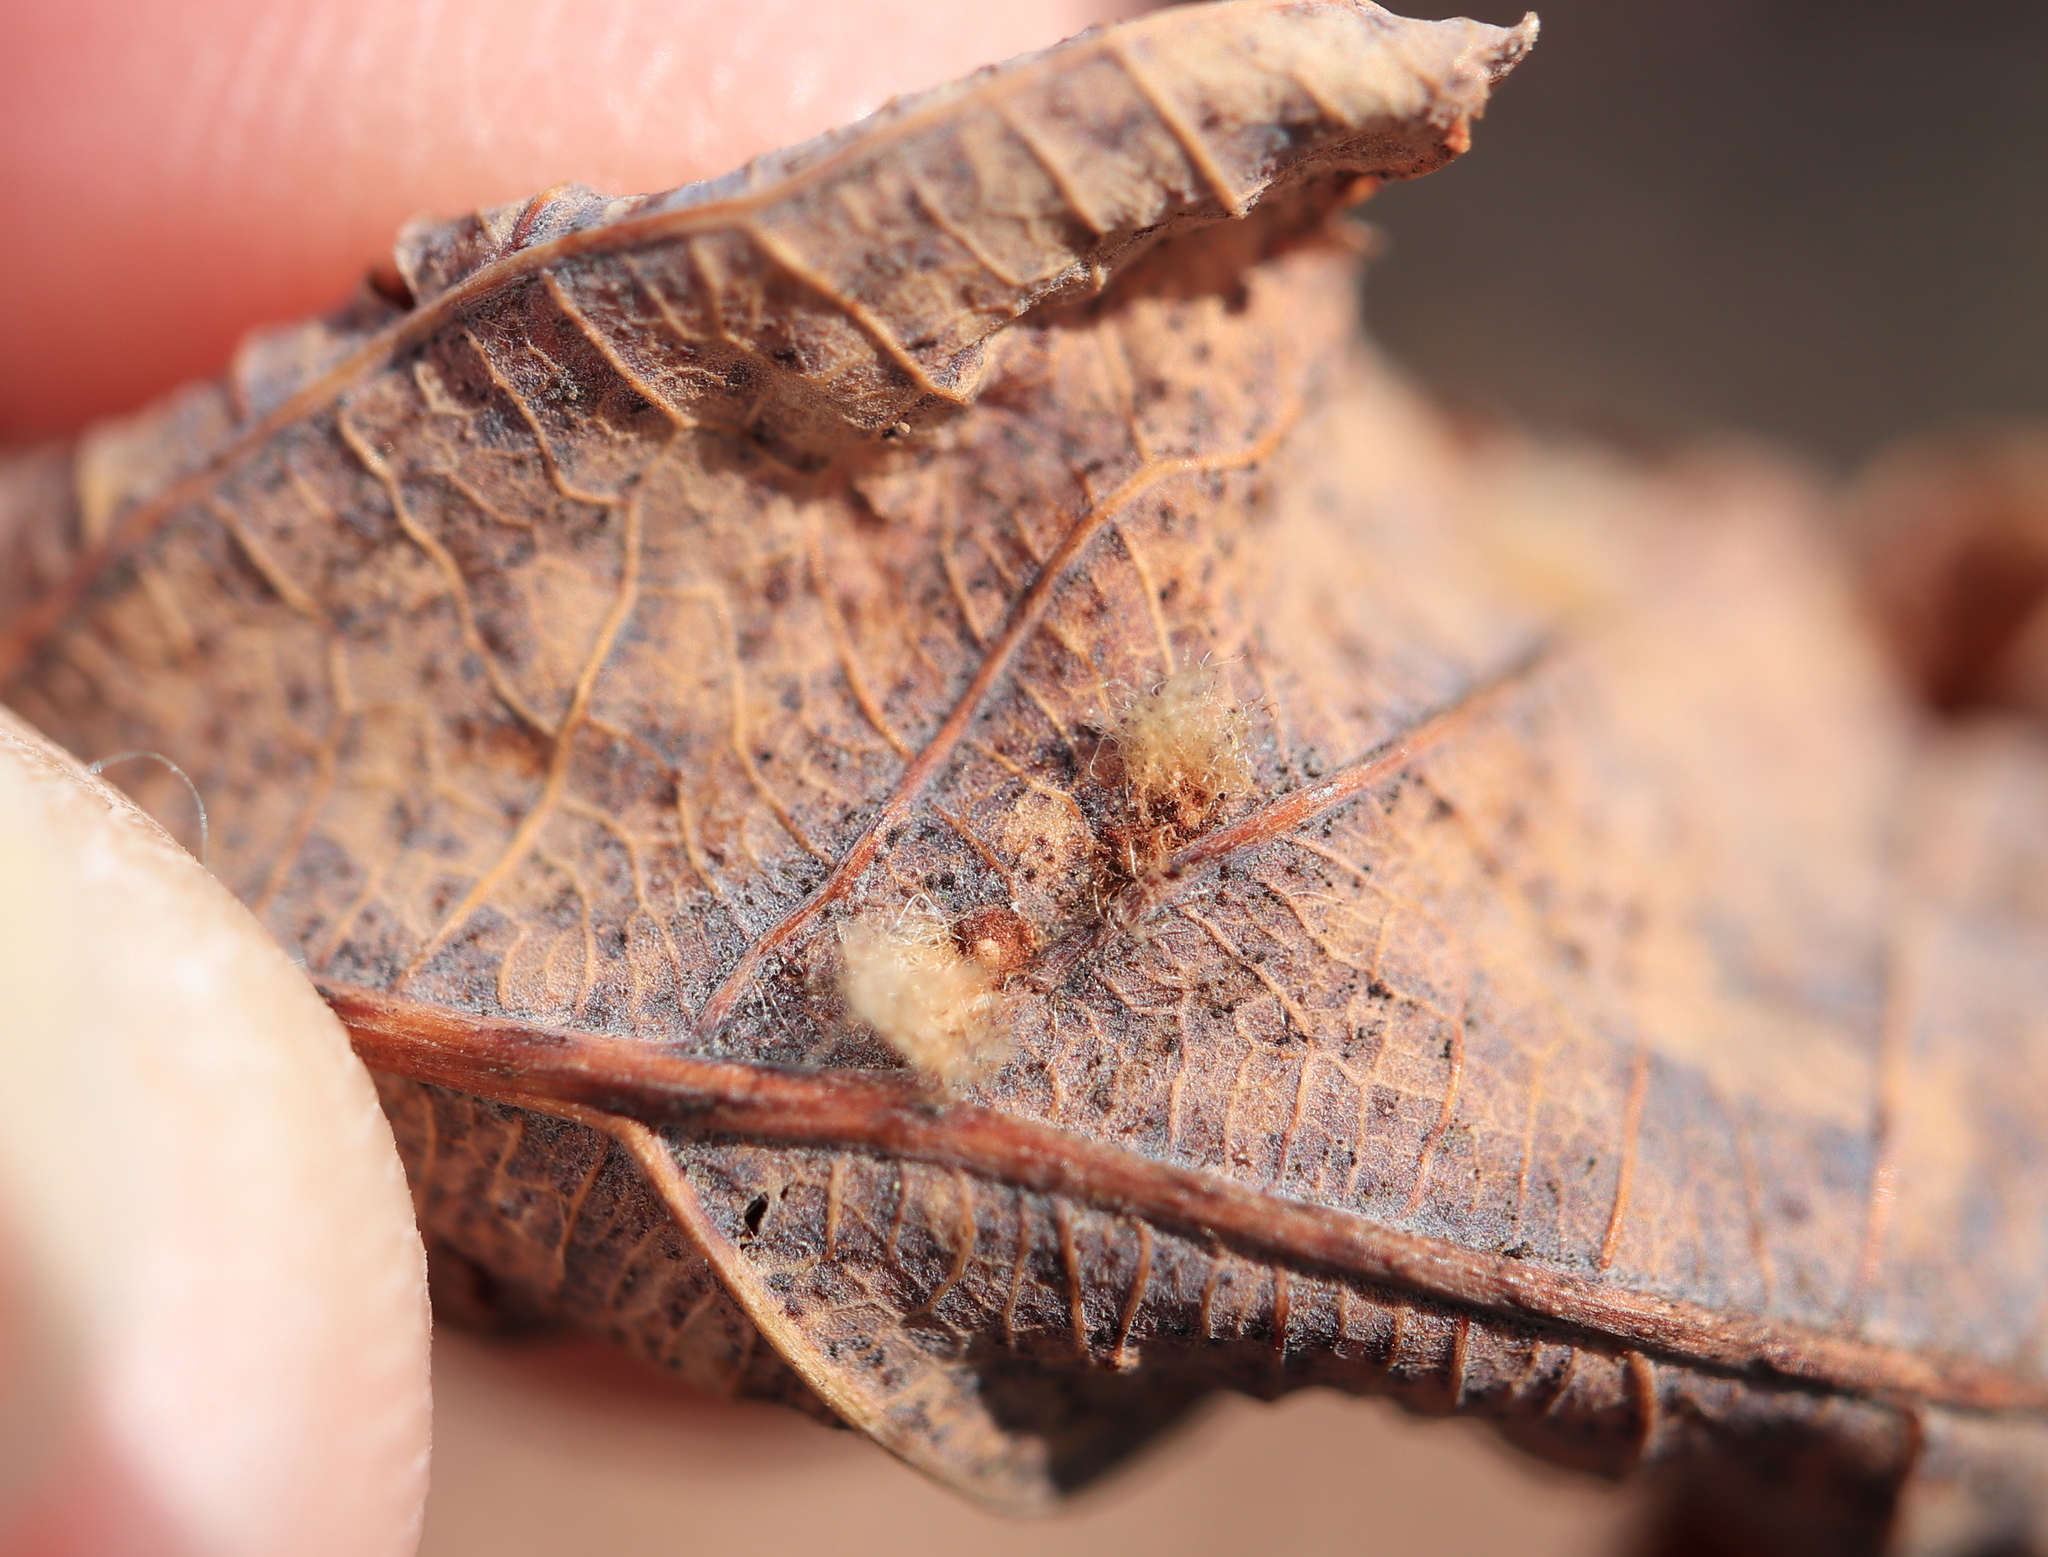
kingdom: Animalia
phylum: Arthropoda
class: Insecta
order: Hymenoptera
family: Cynipidae
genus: Andricus
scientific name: Andricus quercusflocci
